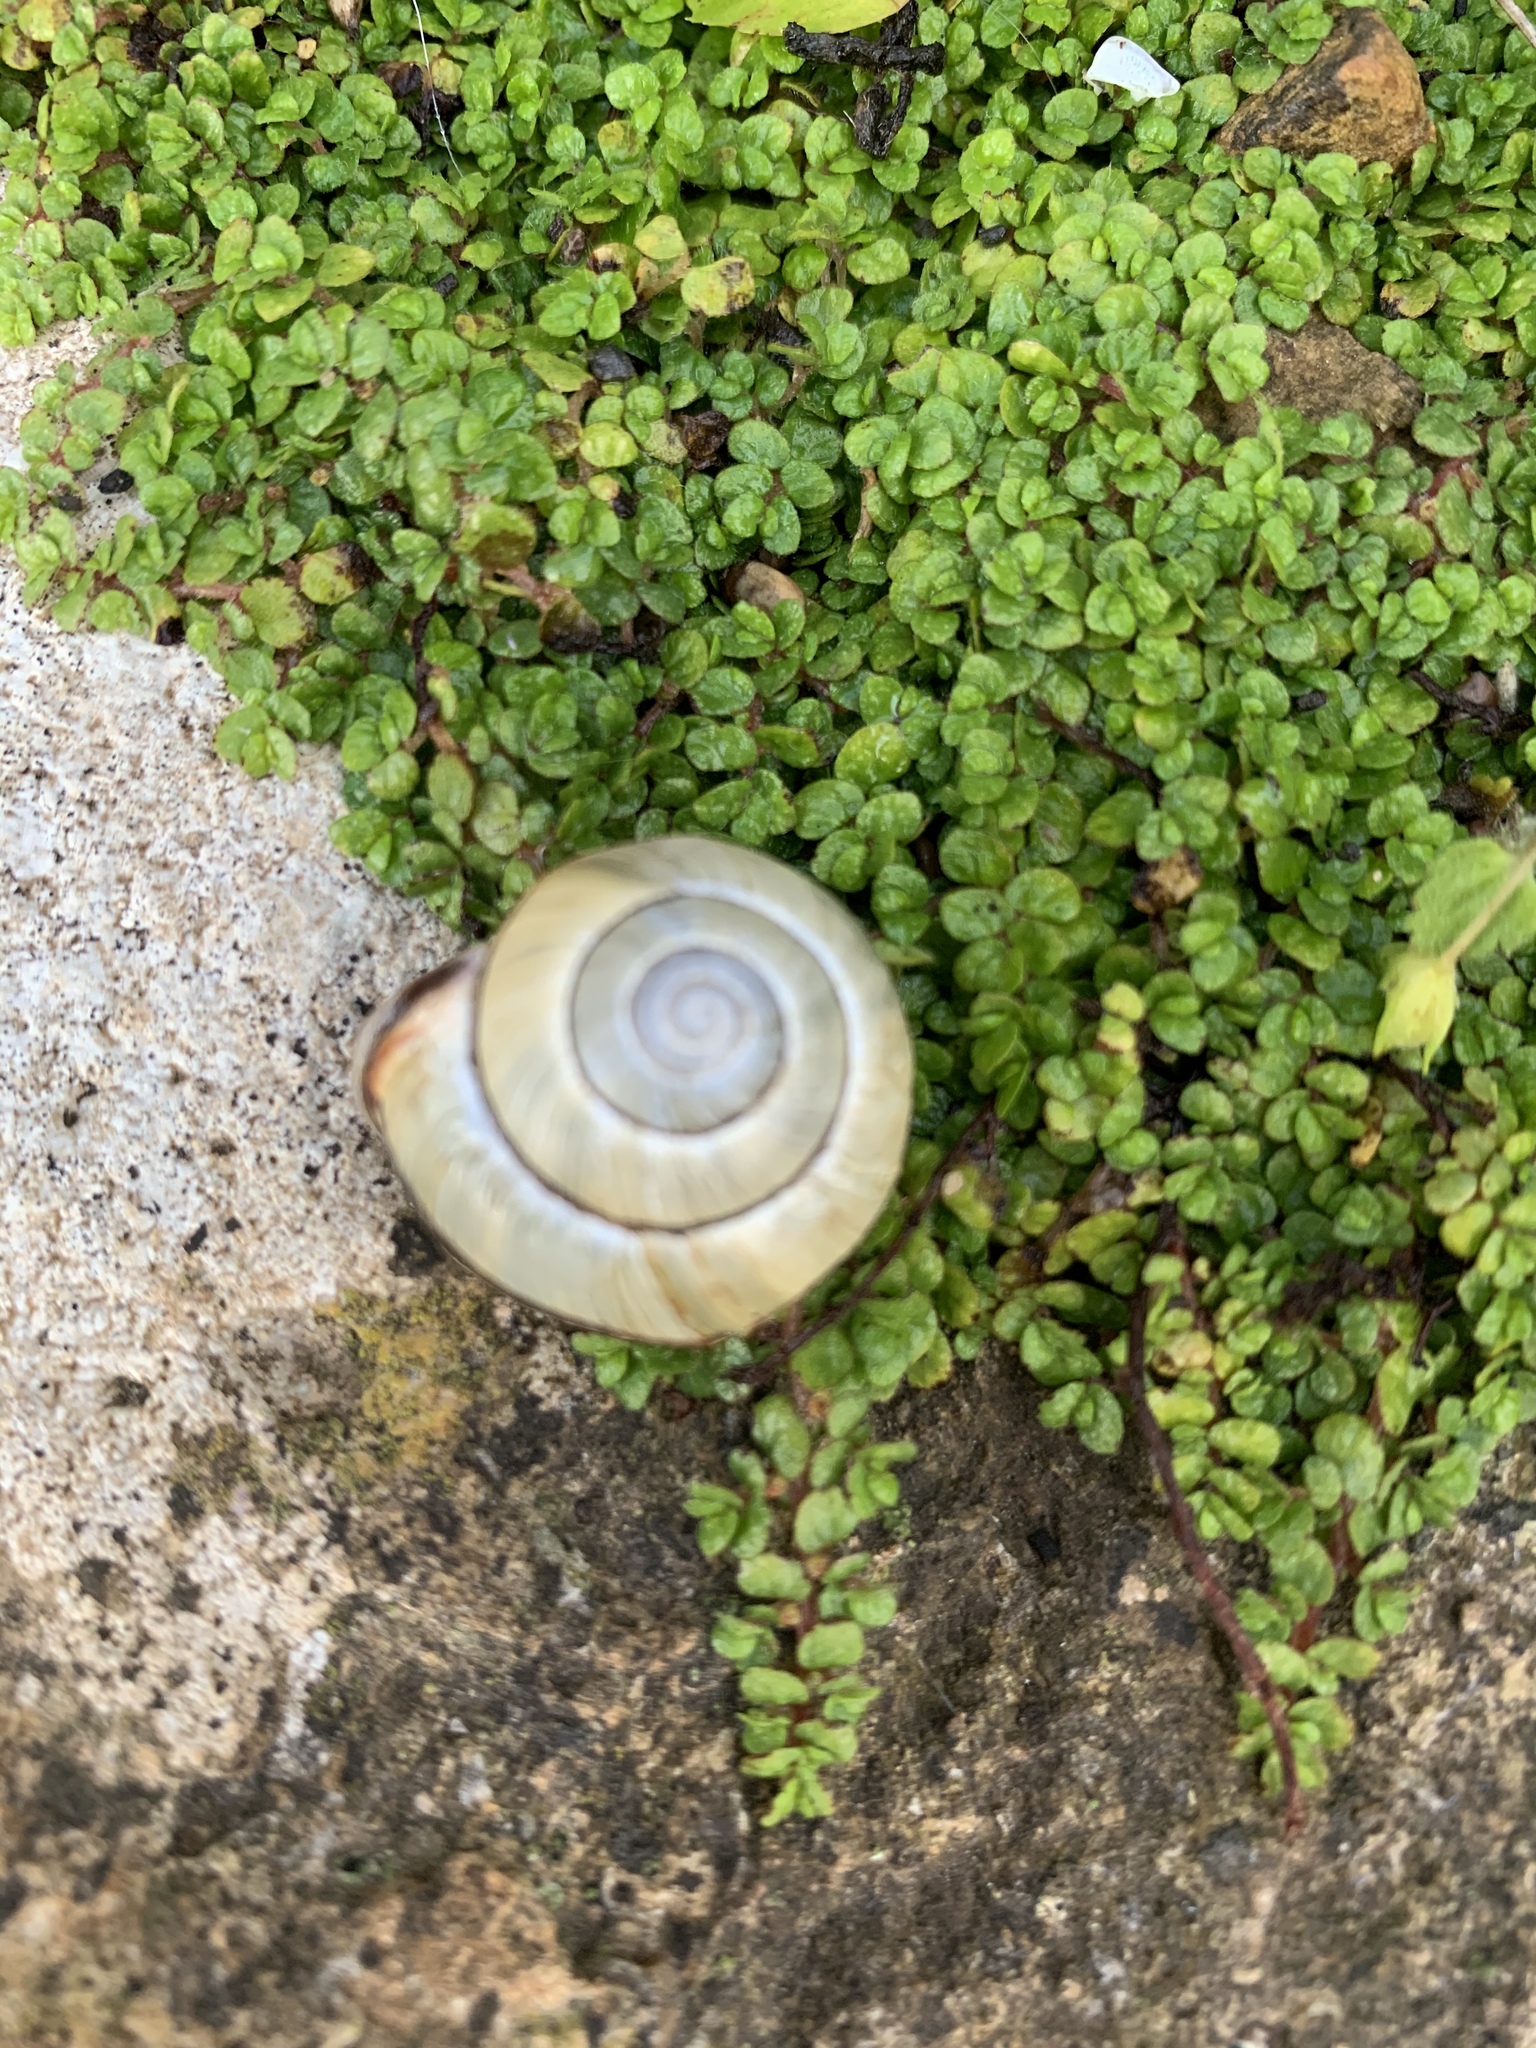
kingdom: Animalia
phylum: Mollusca
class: Gastropoda
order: Stylommatophora
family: Helicidae
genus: Cepaea
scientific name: Cepaea nemoralis
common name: Grovesnail
